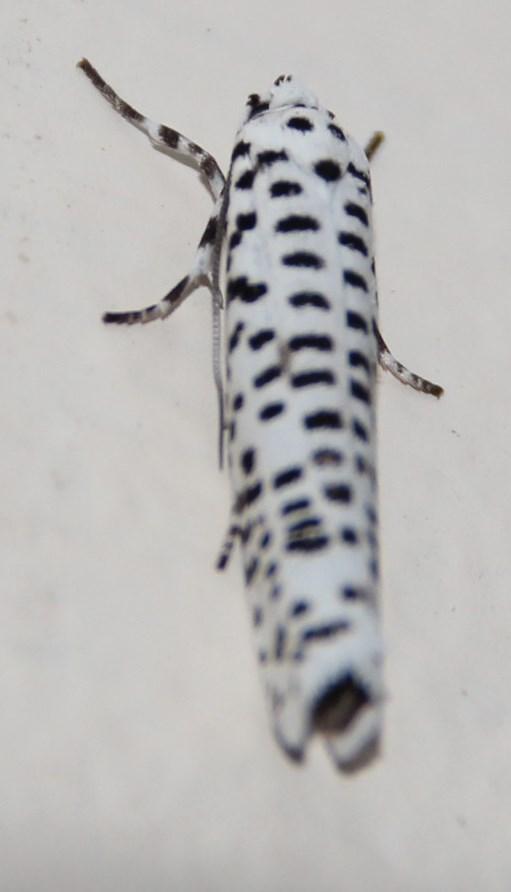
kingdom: Animalia
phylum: Arthropoda
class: Insecta
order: Lepidoptera
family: Yponomeutidae
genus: Yponomeuta
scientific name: Yponomeuta strigillata
